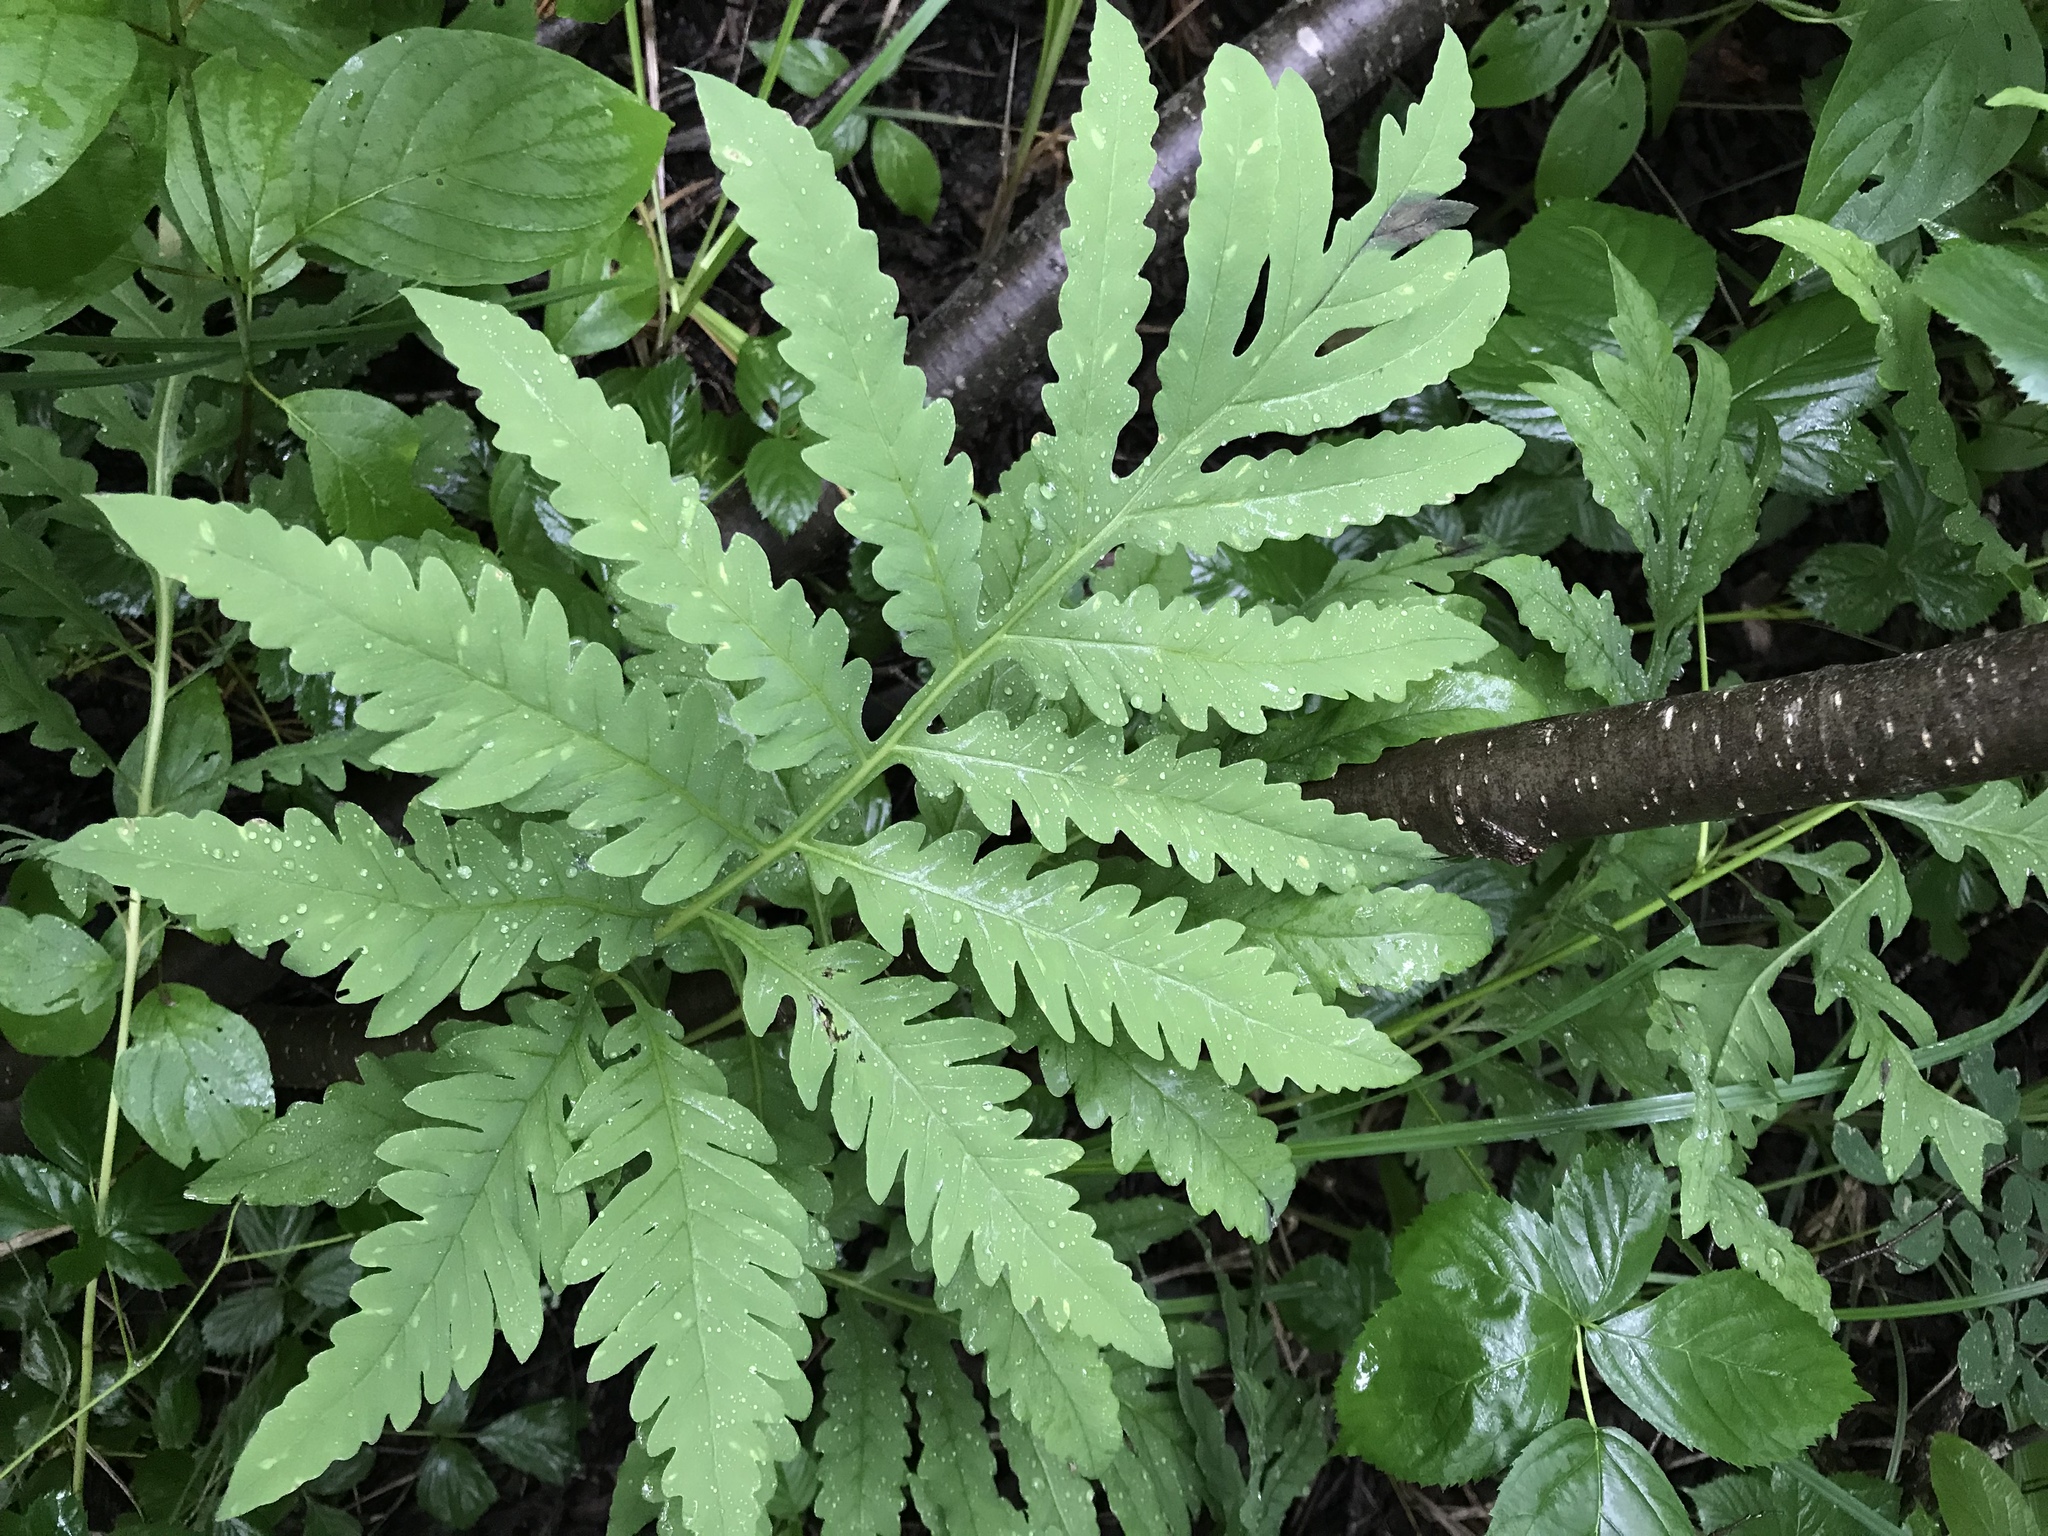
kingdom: Plantae
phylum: Tracheophyta
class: Polypodiopsida
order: Polypodiales
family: Onocleaceae
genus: Onoclea
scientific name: Onoclea sensibilis
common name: Sensitive fern
